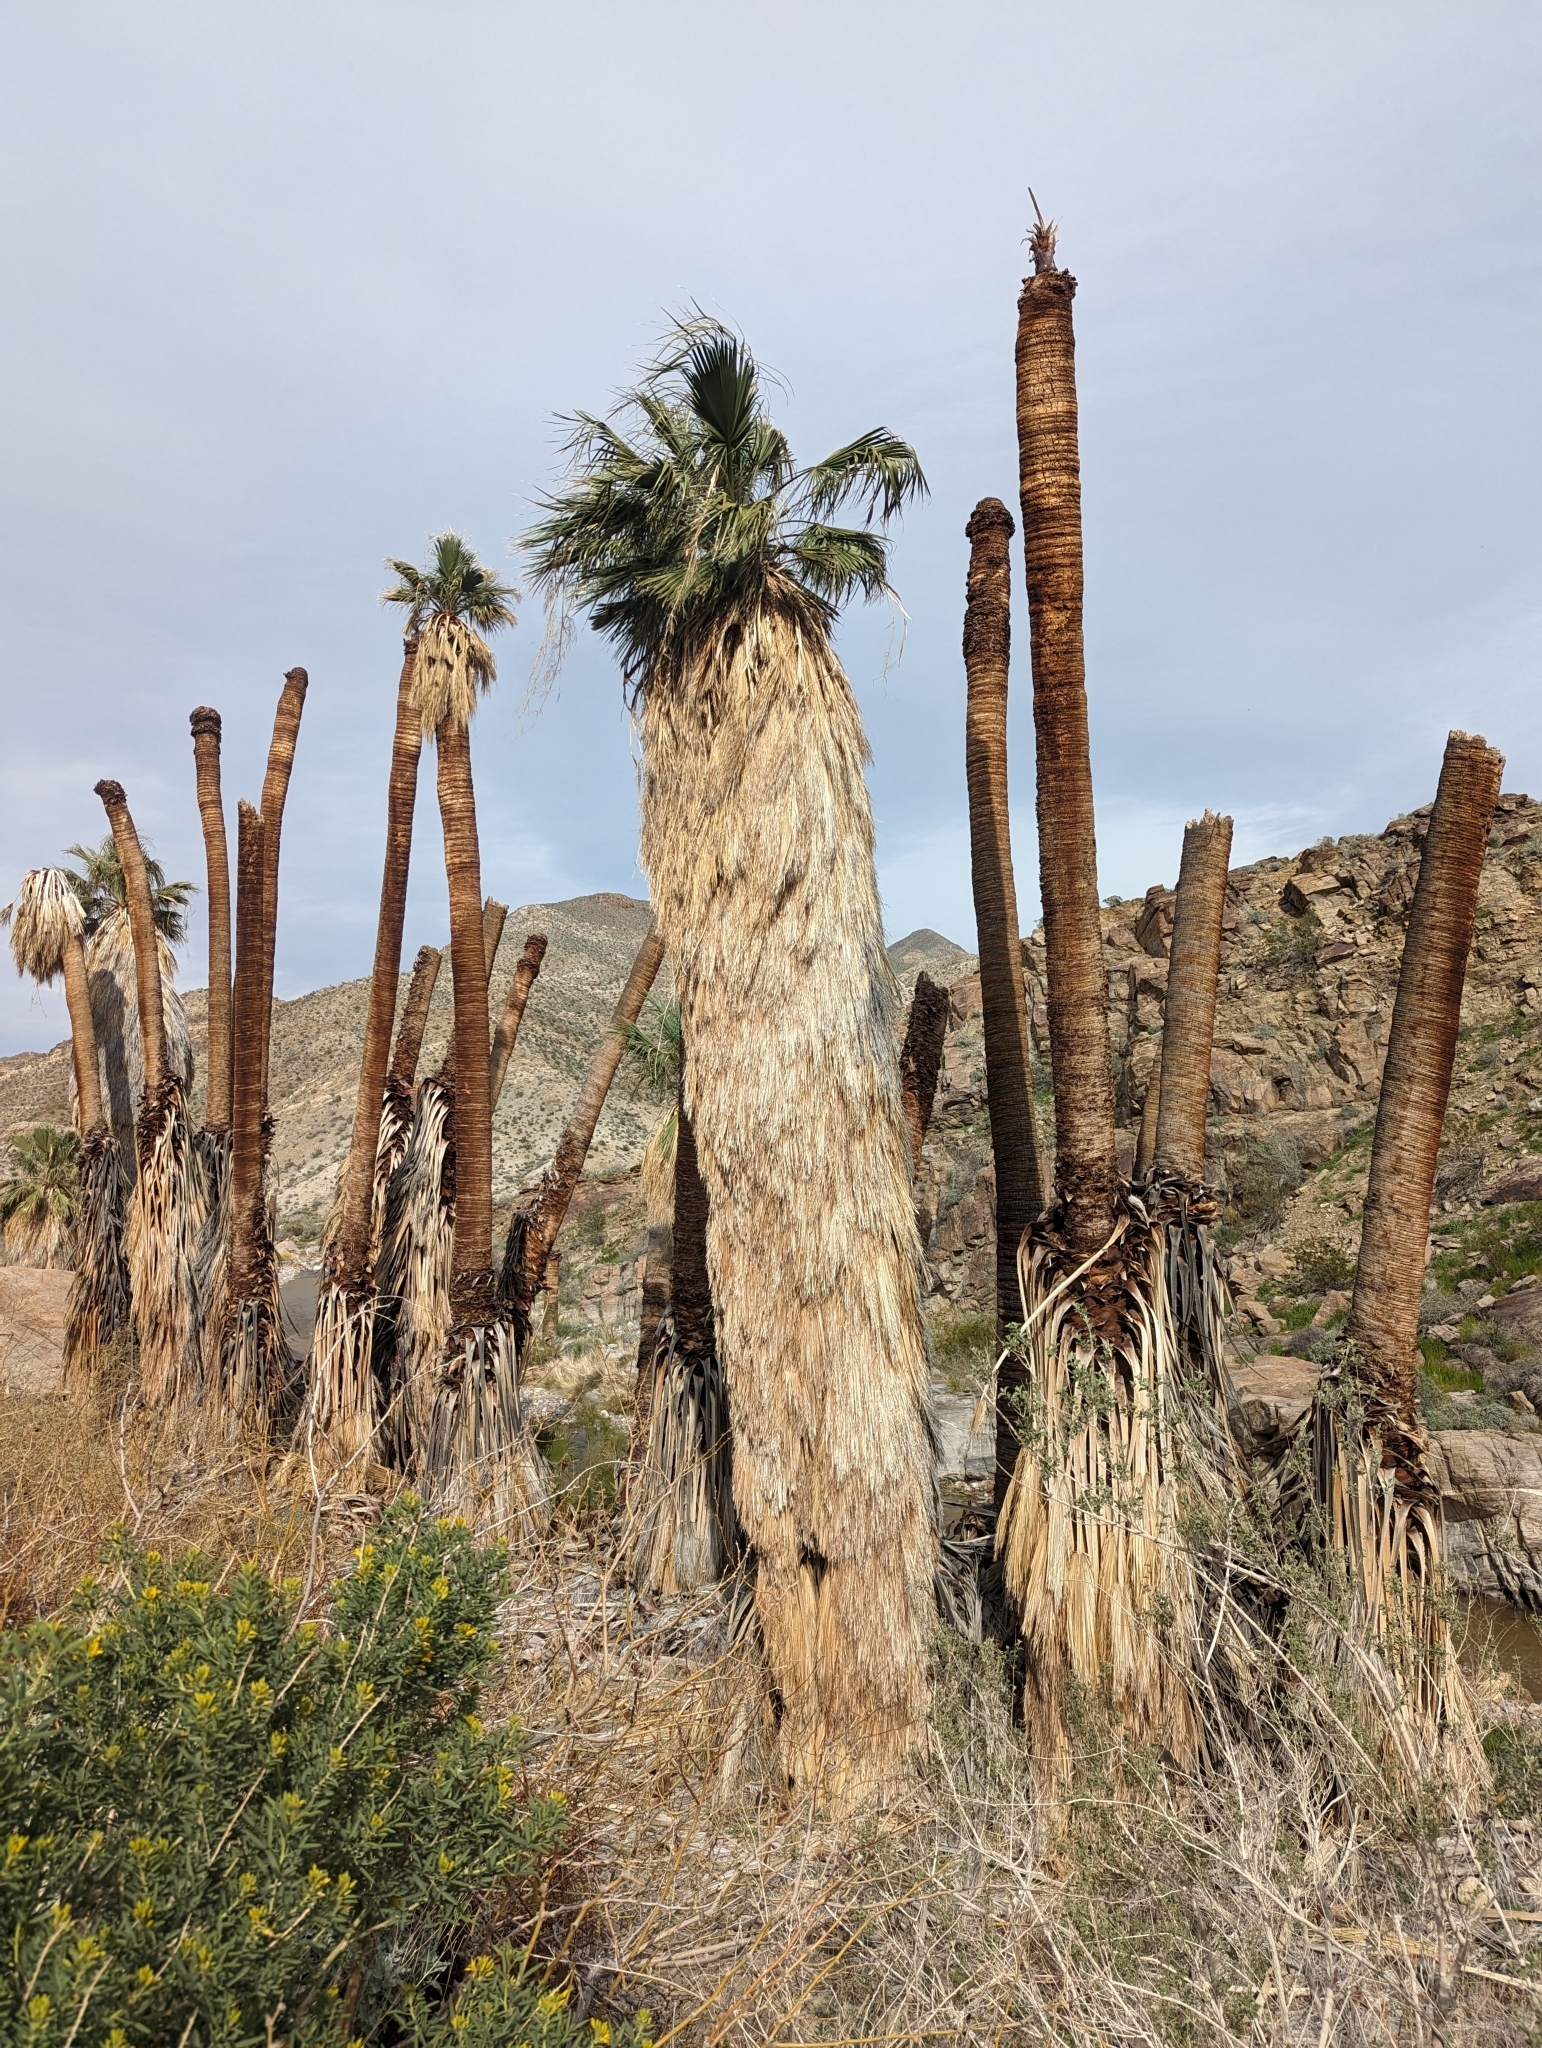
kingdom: Plantae
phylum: Tracheophyta
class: Liliopsida
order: Arecales
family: Arecaceae
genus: Washingtonia
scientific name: Washingtonia filifera
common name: California fan palm
